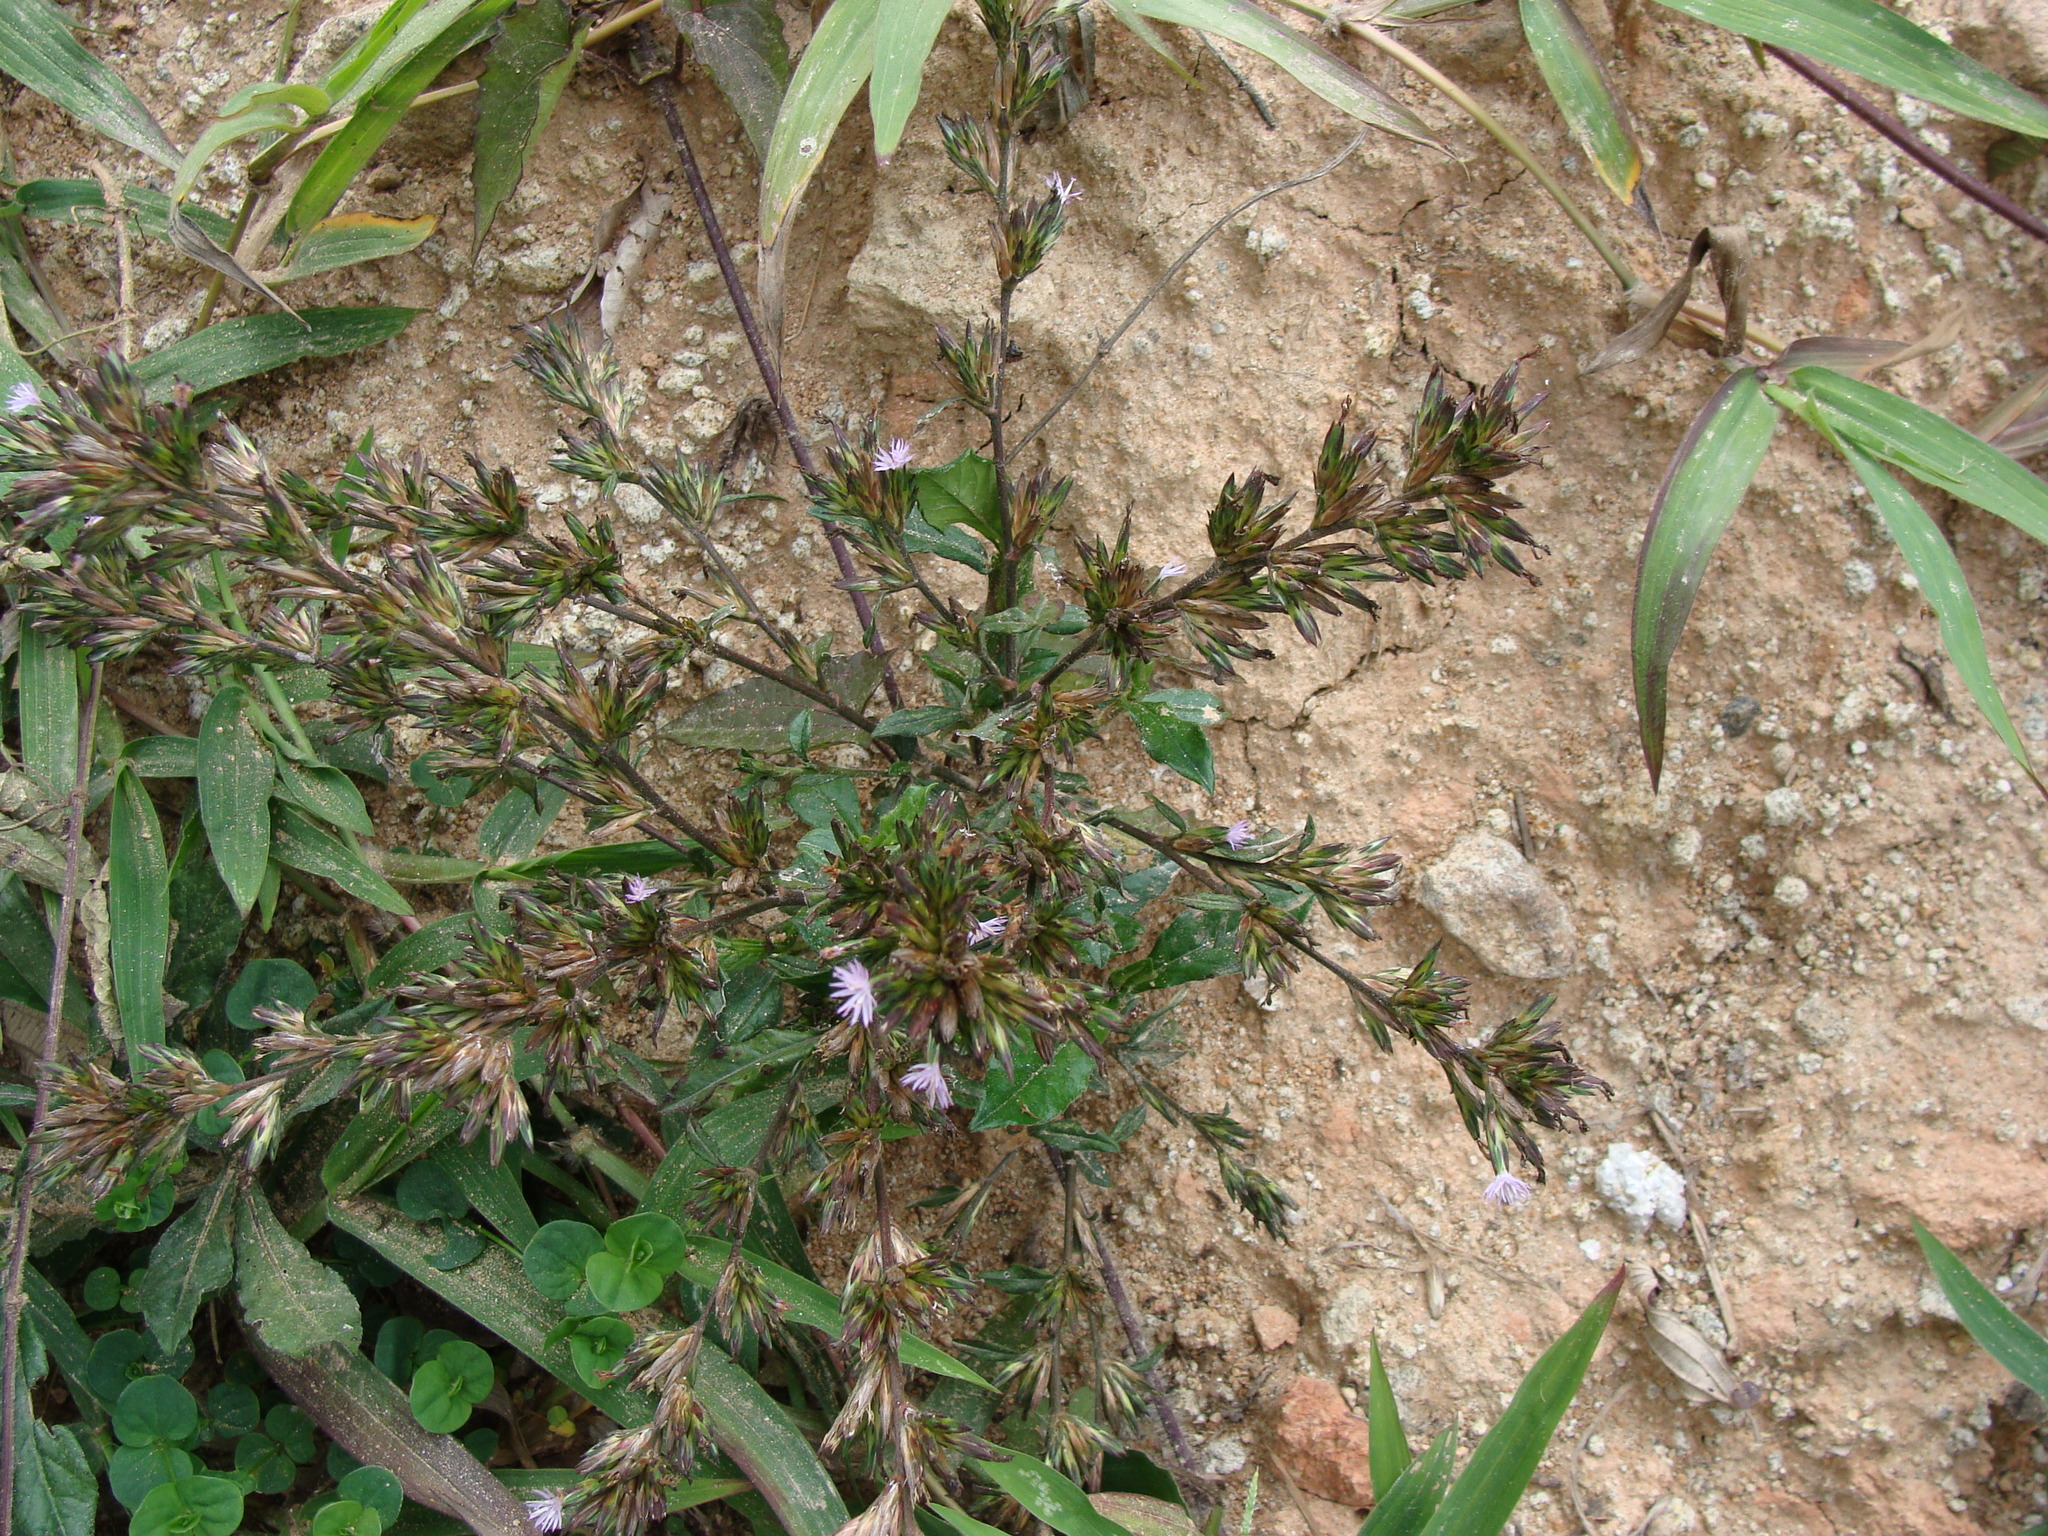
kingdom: Plantae
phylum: Tracheophyta
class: Magnoliopsida
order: Asterales
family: Asteraceae
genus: Pseudelephantopus
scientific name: Pseudelephantopus spicatus
